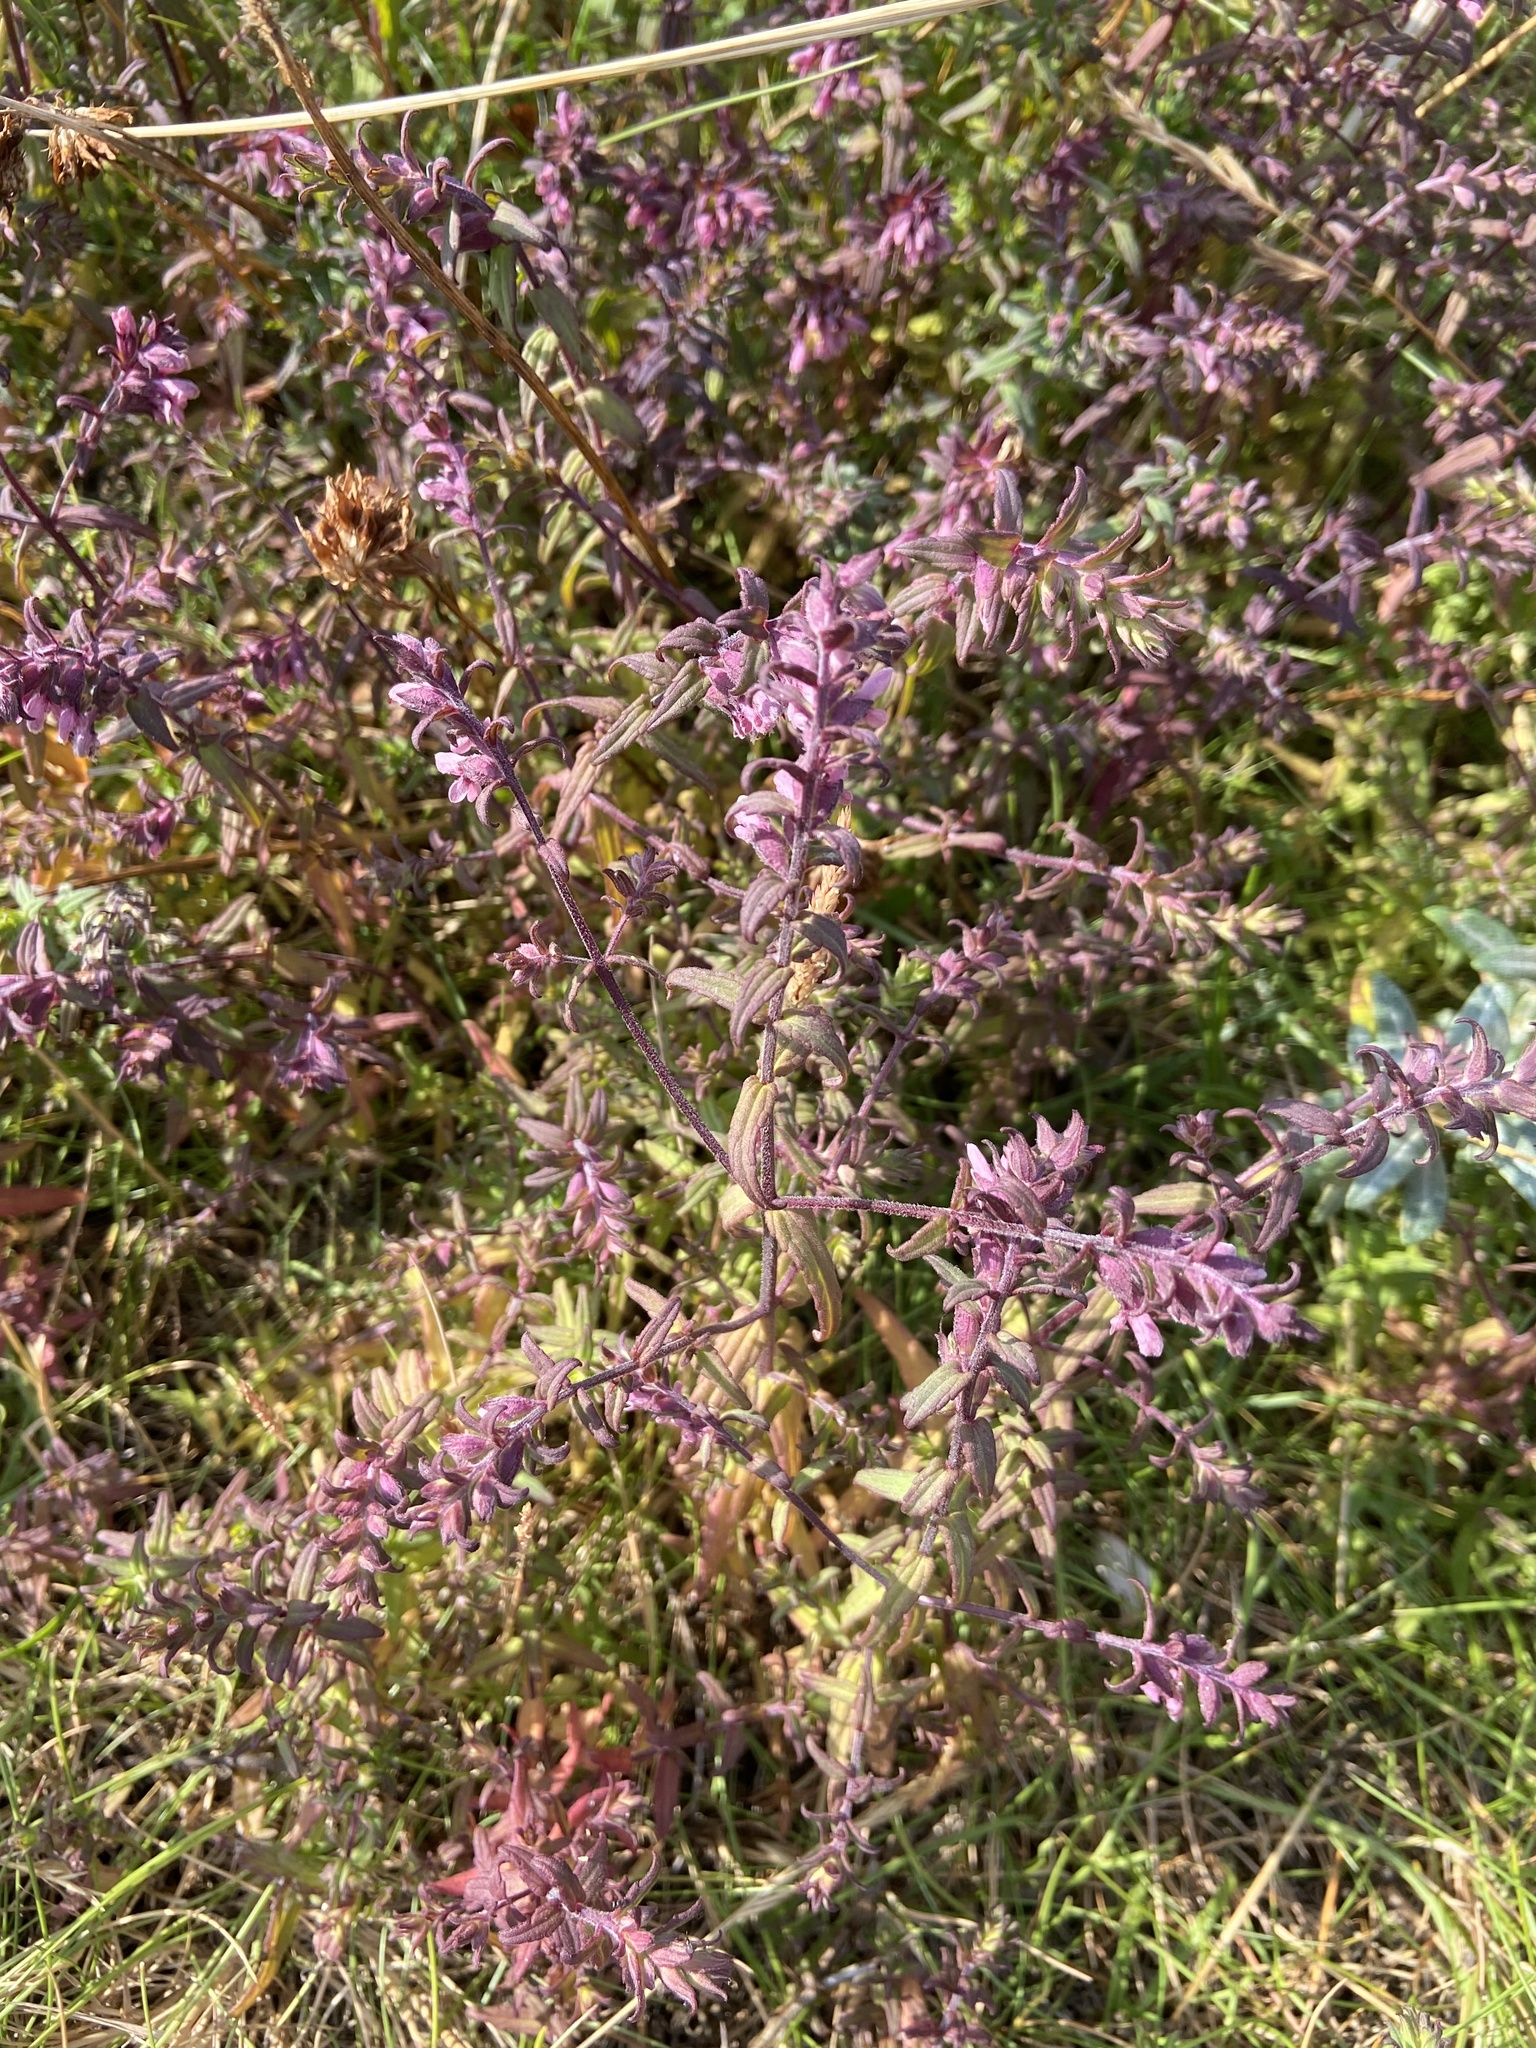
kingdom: Plantae
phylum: Tracheophyta
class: Magnoliopsida
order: Lamiales
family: Orobanchaceae
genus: Odontites
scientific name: Odontites vernus
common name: Red bartsia
